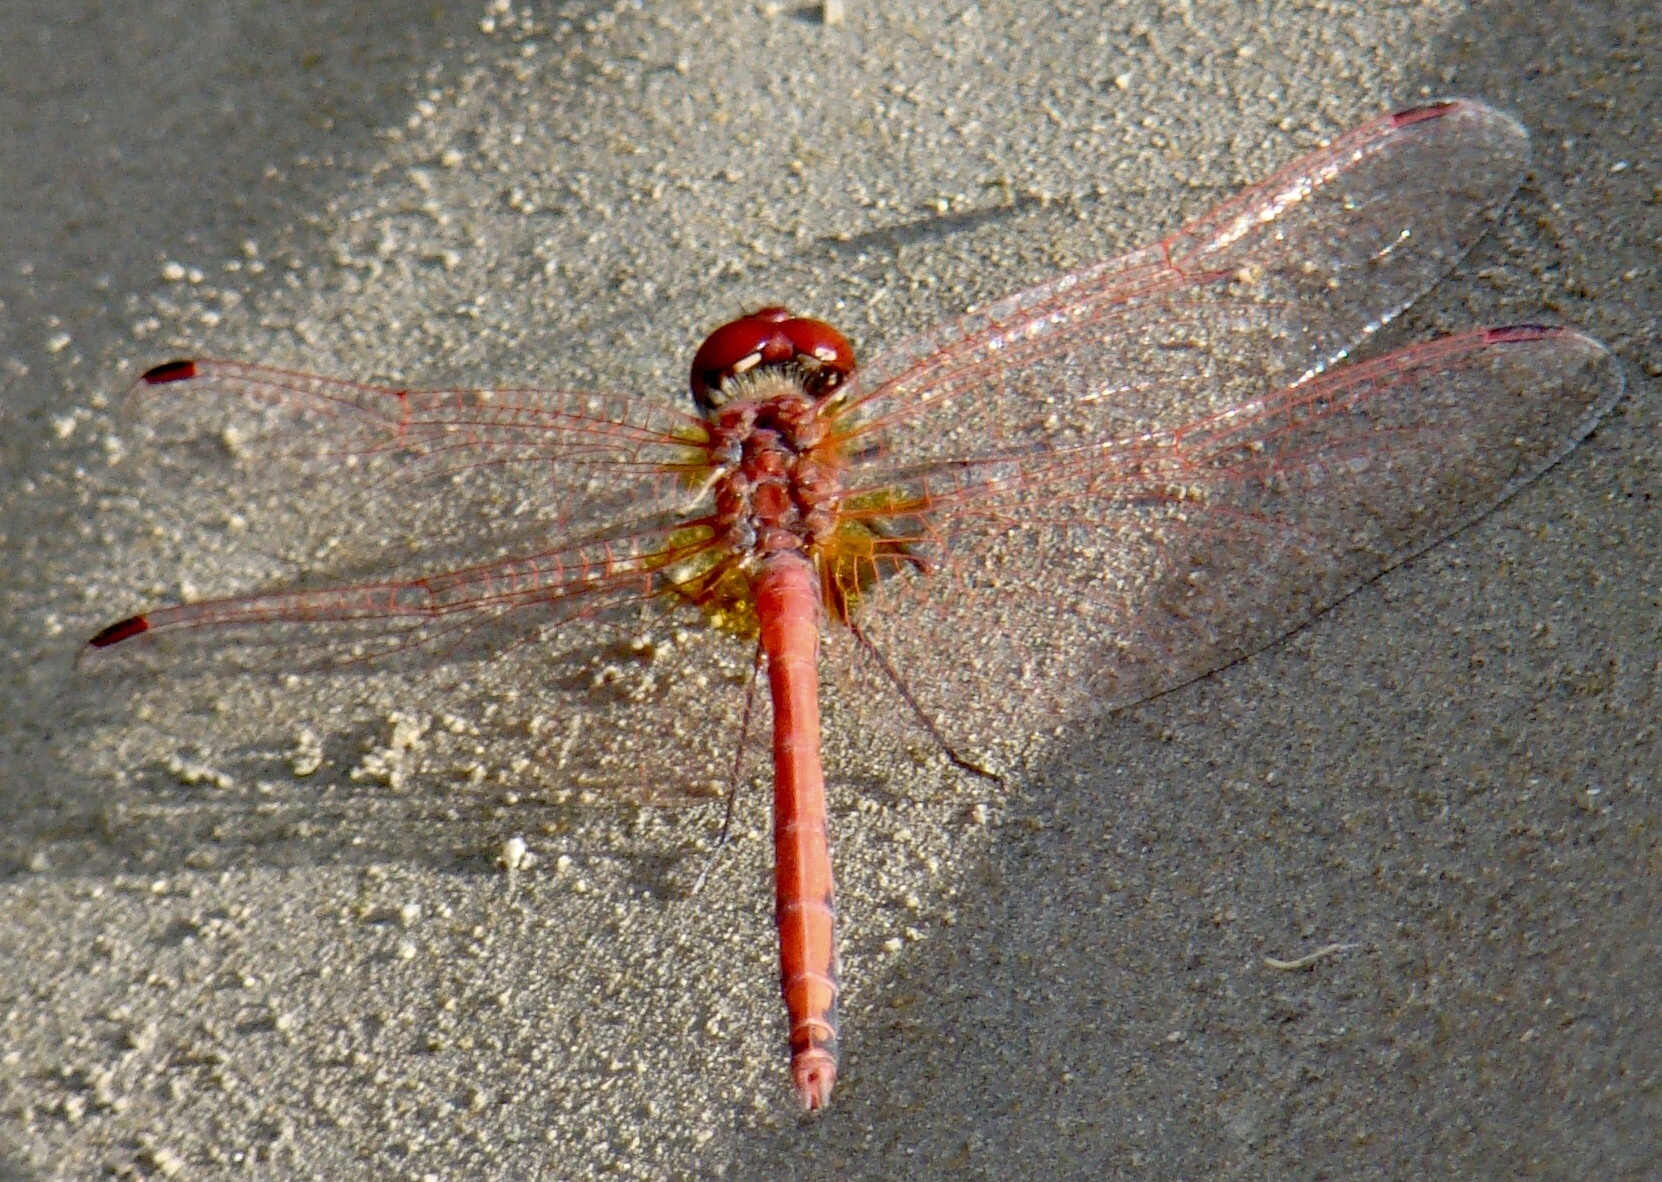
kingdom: Animalia
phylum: Arthropoda
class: Insecta
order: Odonata
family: Libellulidae
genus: Trithemis
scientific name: Trithemis arteriosa
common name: Red-veined dropwing
